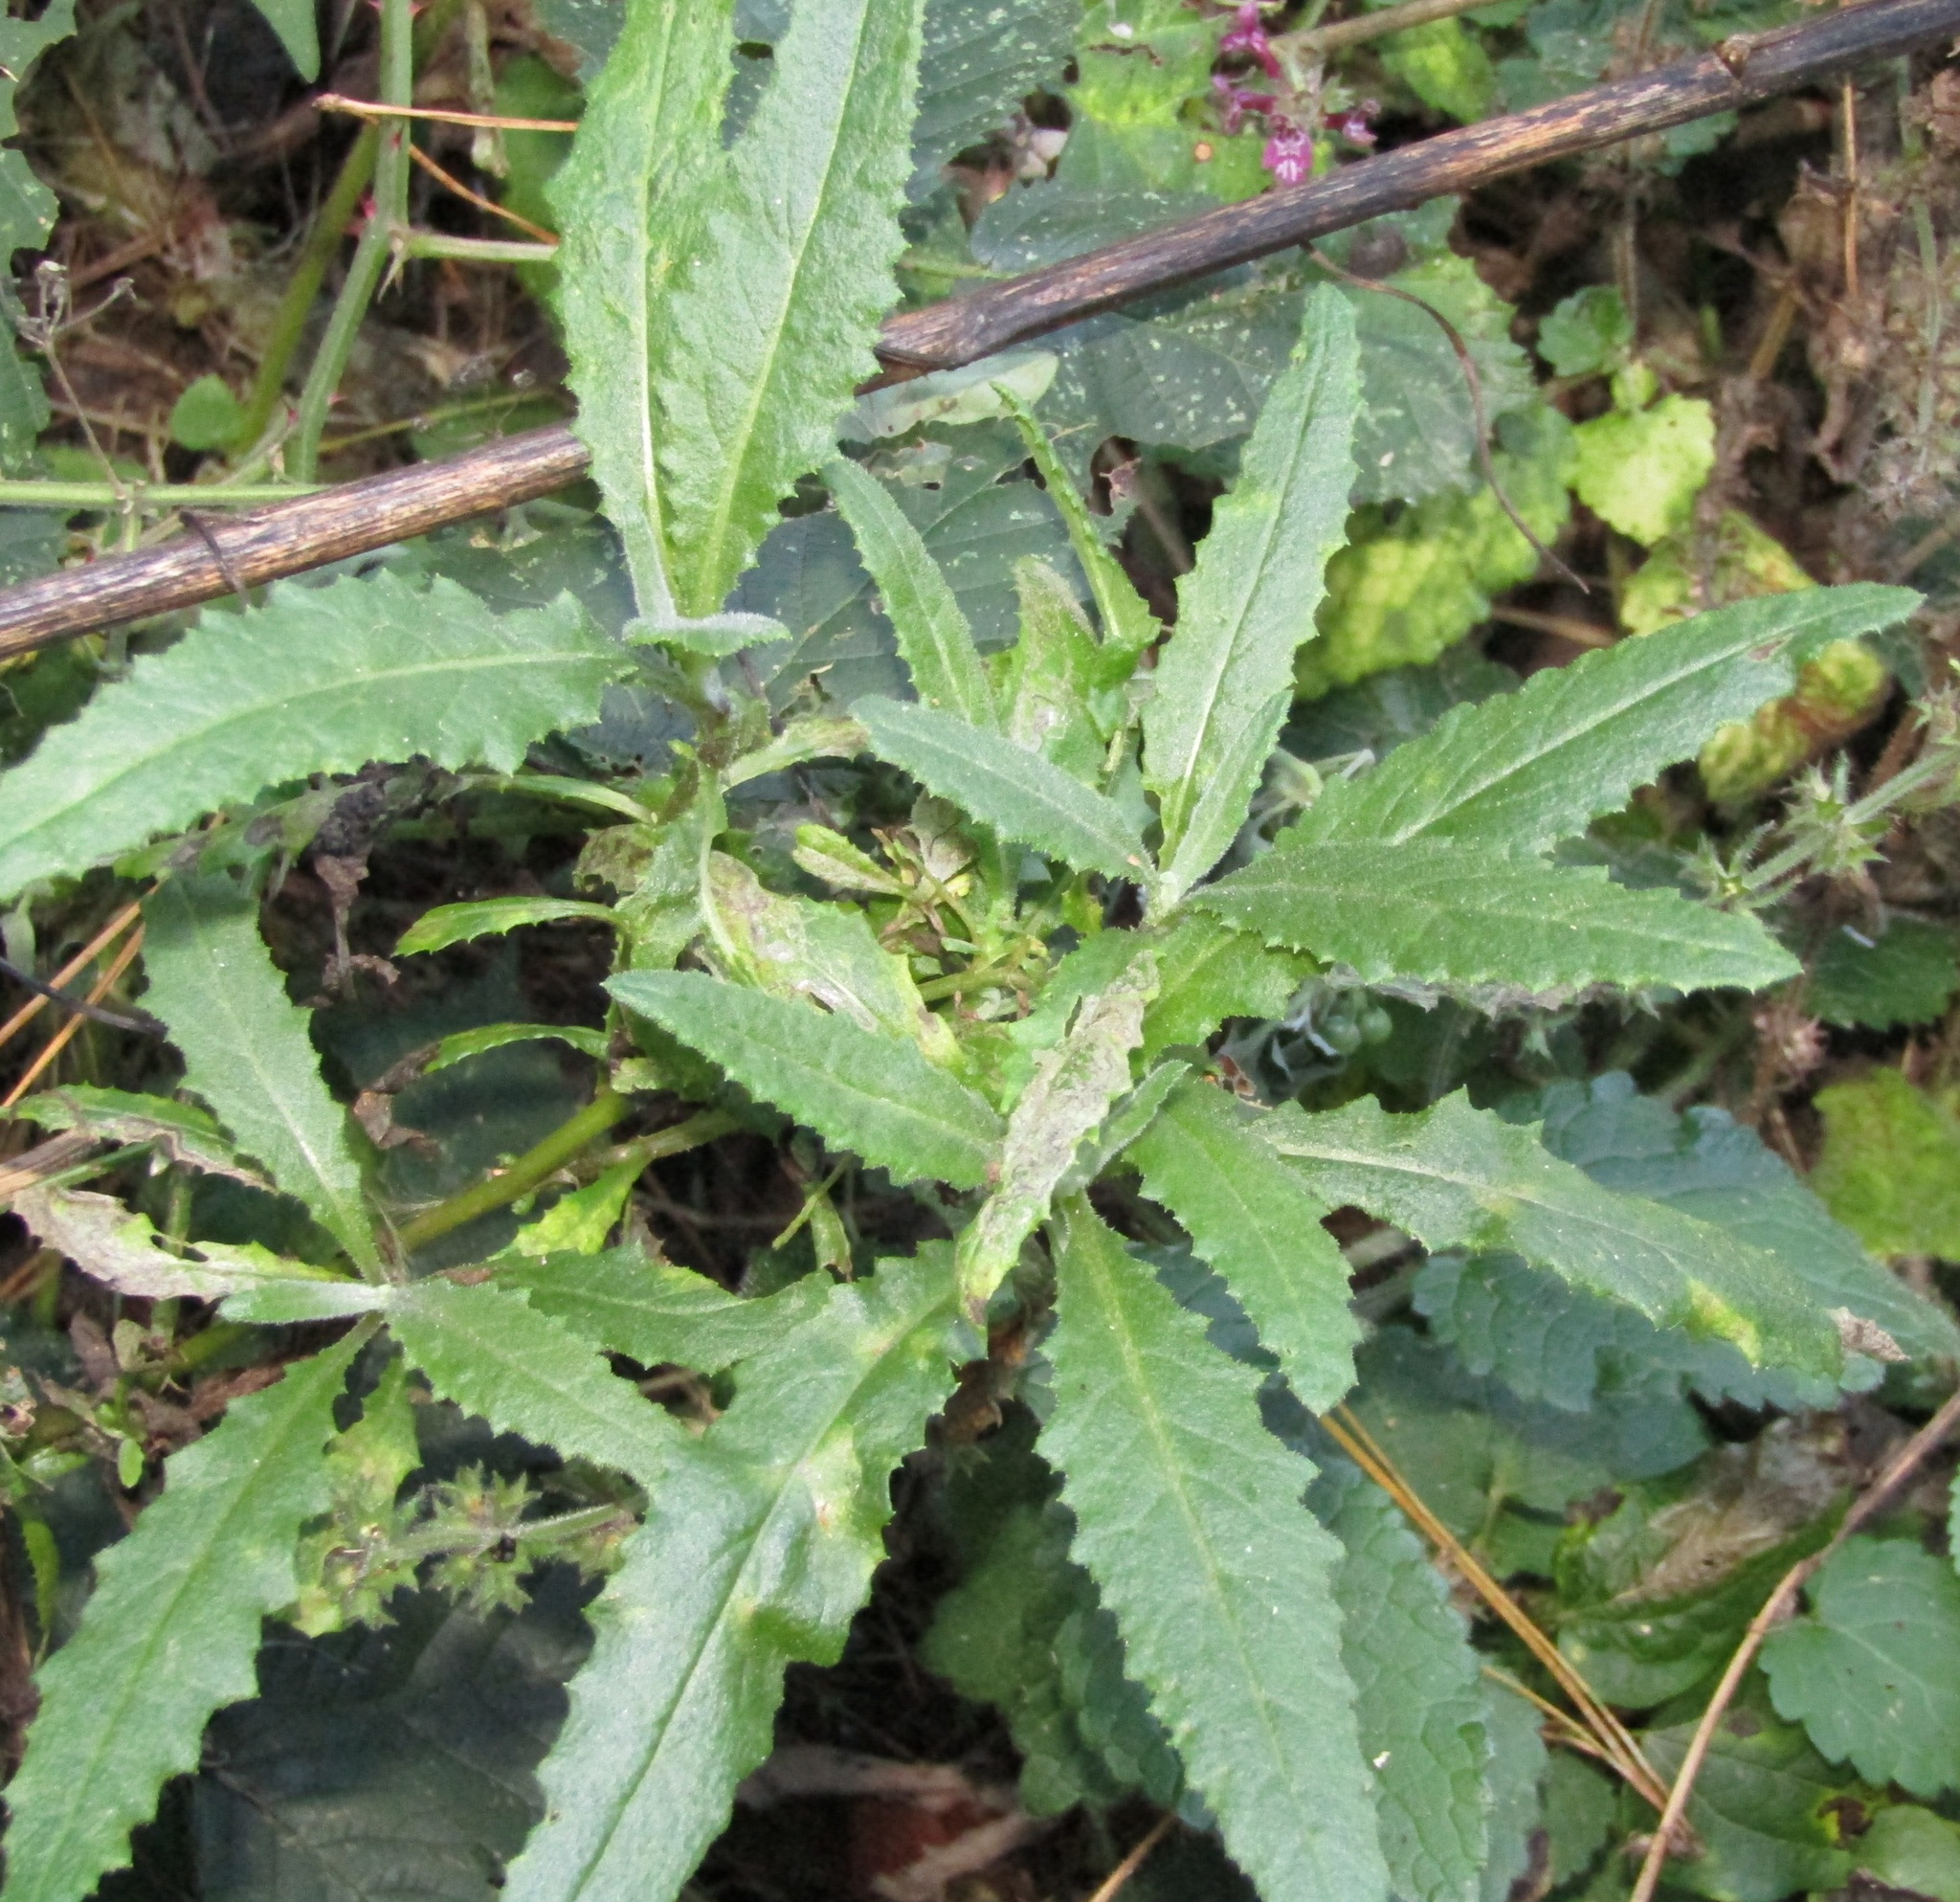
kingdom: Plantae
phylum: Tracheophyta
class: Magnoliopsida
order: Asterales
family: Asteraceae
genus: Senecio
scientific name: Senecio minimus
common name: Toothed fireweed
